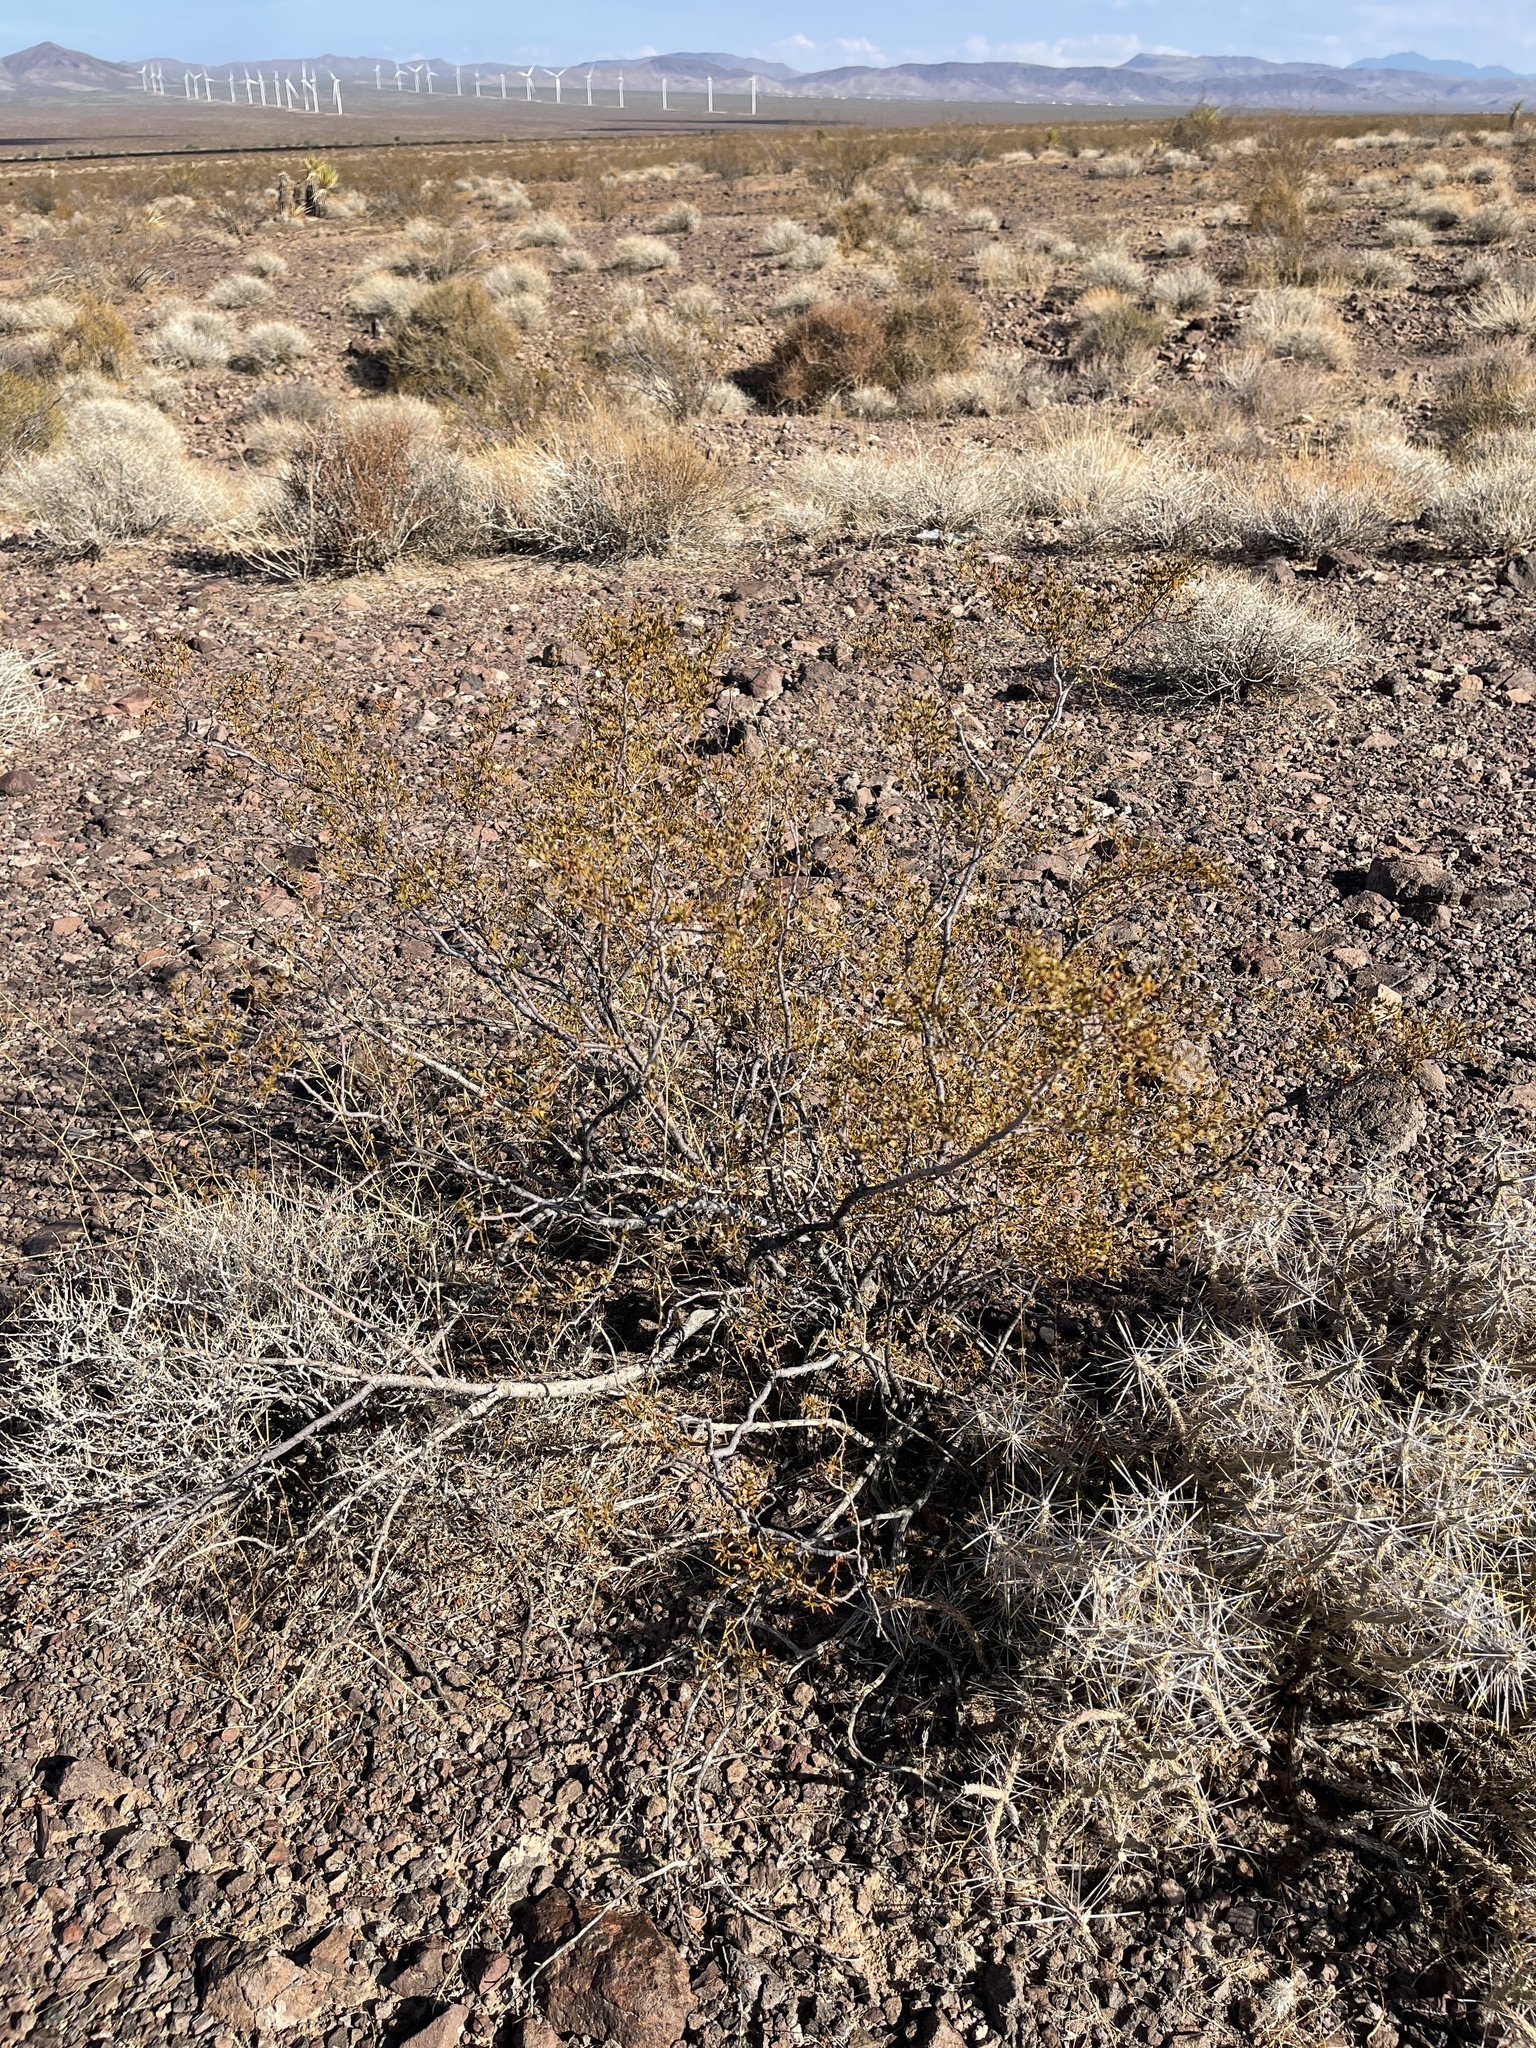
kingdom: Plantae
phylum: Tracheophyta
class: Magnoliopsida
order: Zygophyllales
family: Zygophyllaceae
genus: Larrea
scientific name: Larrea tridentata
